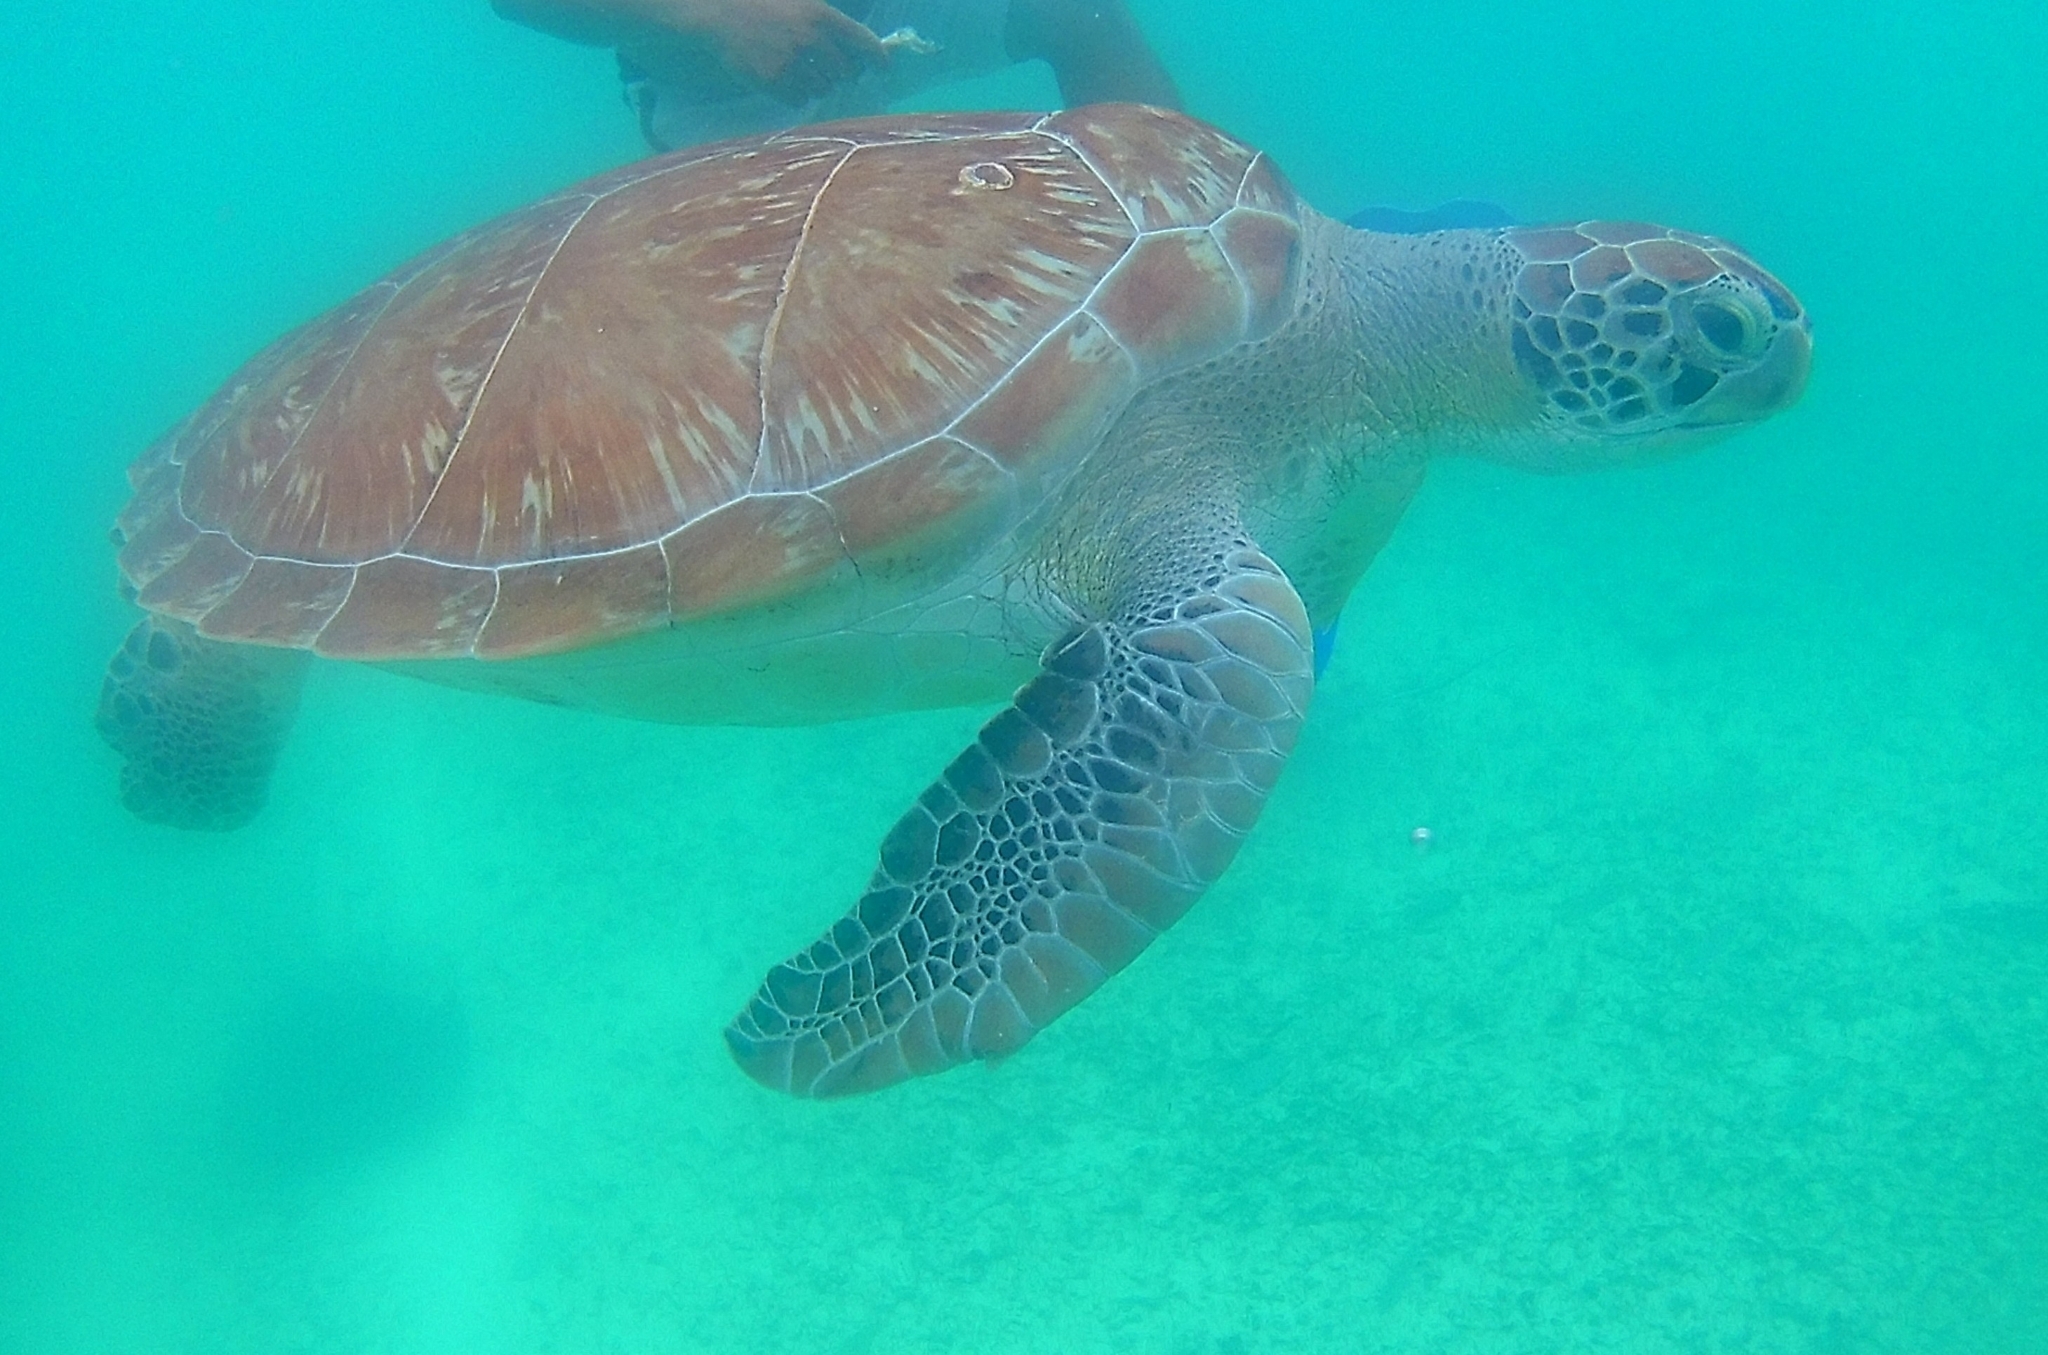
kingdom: Animalia
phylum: Chordata
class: Testudines
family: Cheloniidae
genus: Chelonia
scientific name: Chelonia mydas
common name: Green turtle
